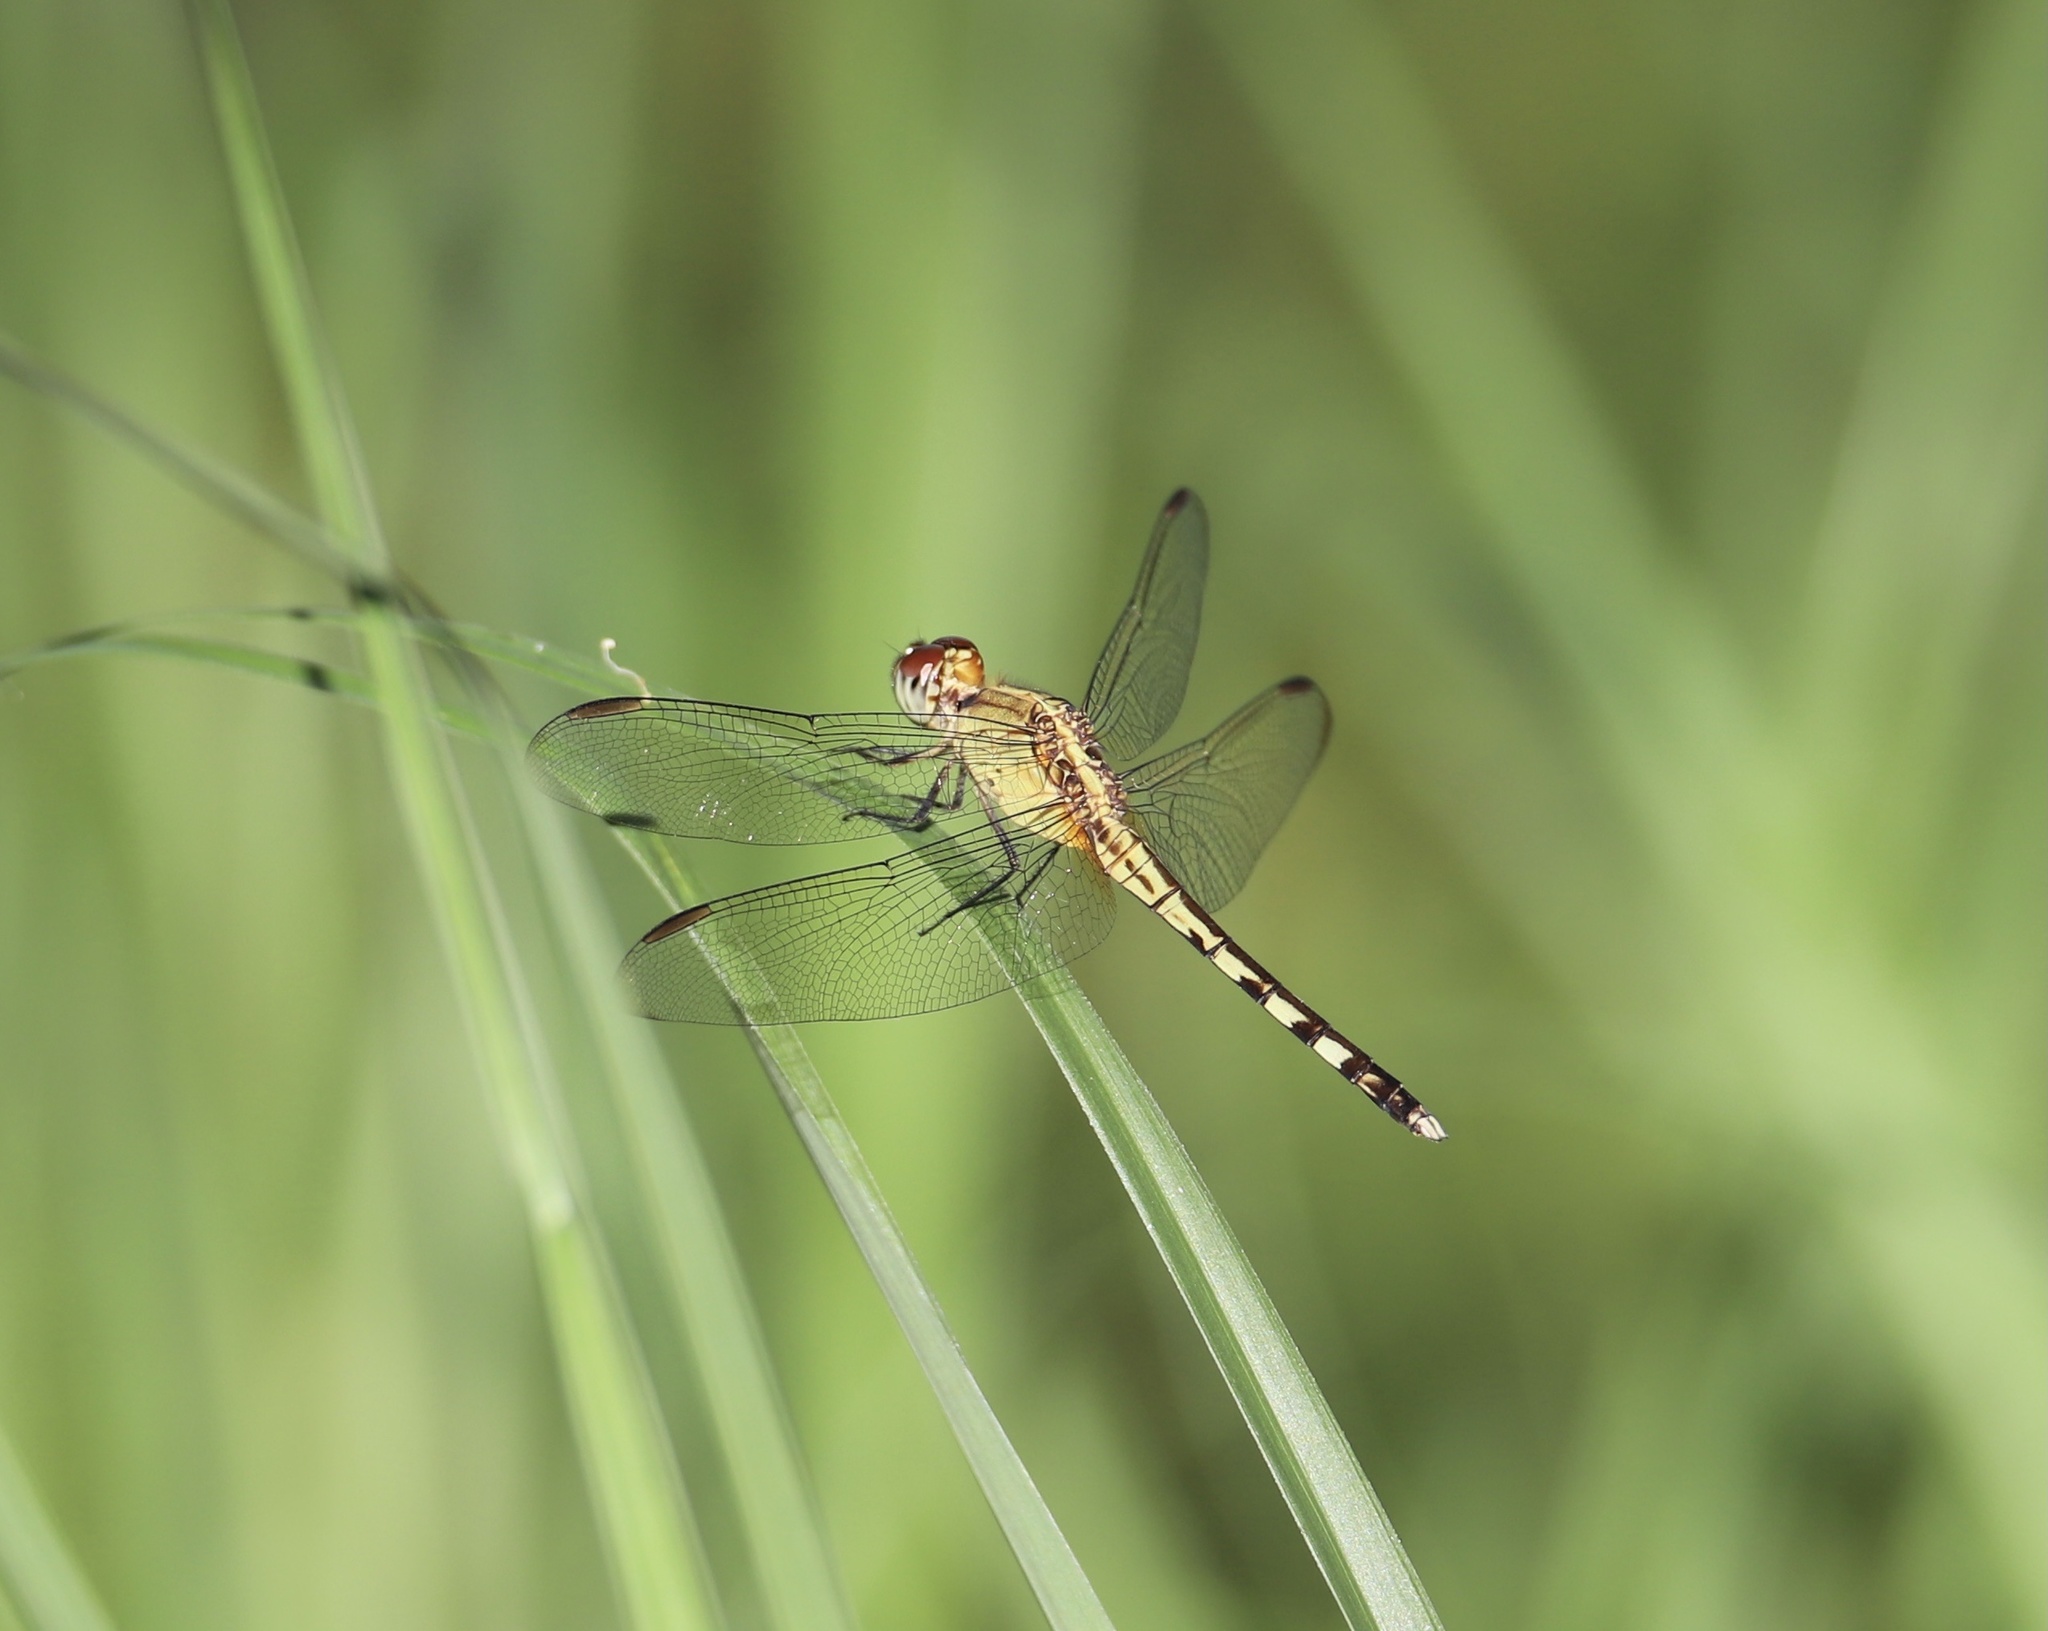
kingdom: Animalia
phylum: Arthropoda
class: Insecta
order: Odonata
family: Libellulidae
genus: Erythrodiplax
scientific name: Erythrodiplax umbrata
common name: Band-winged dragonlet
